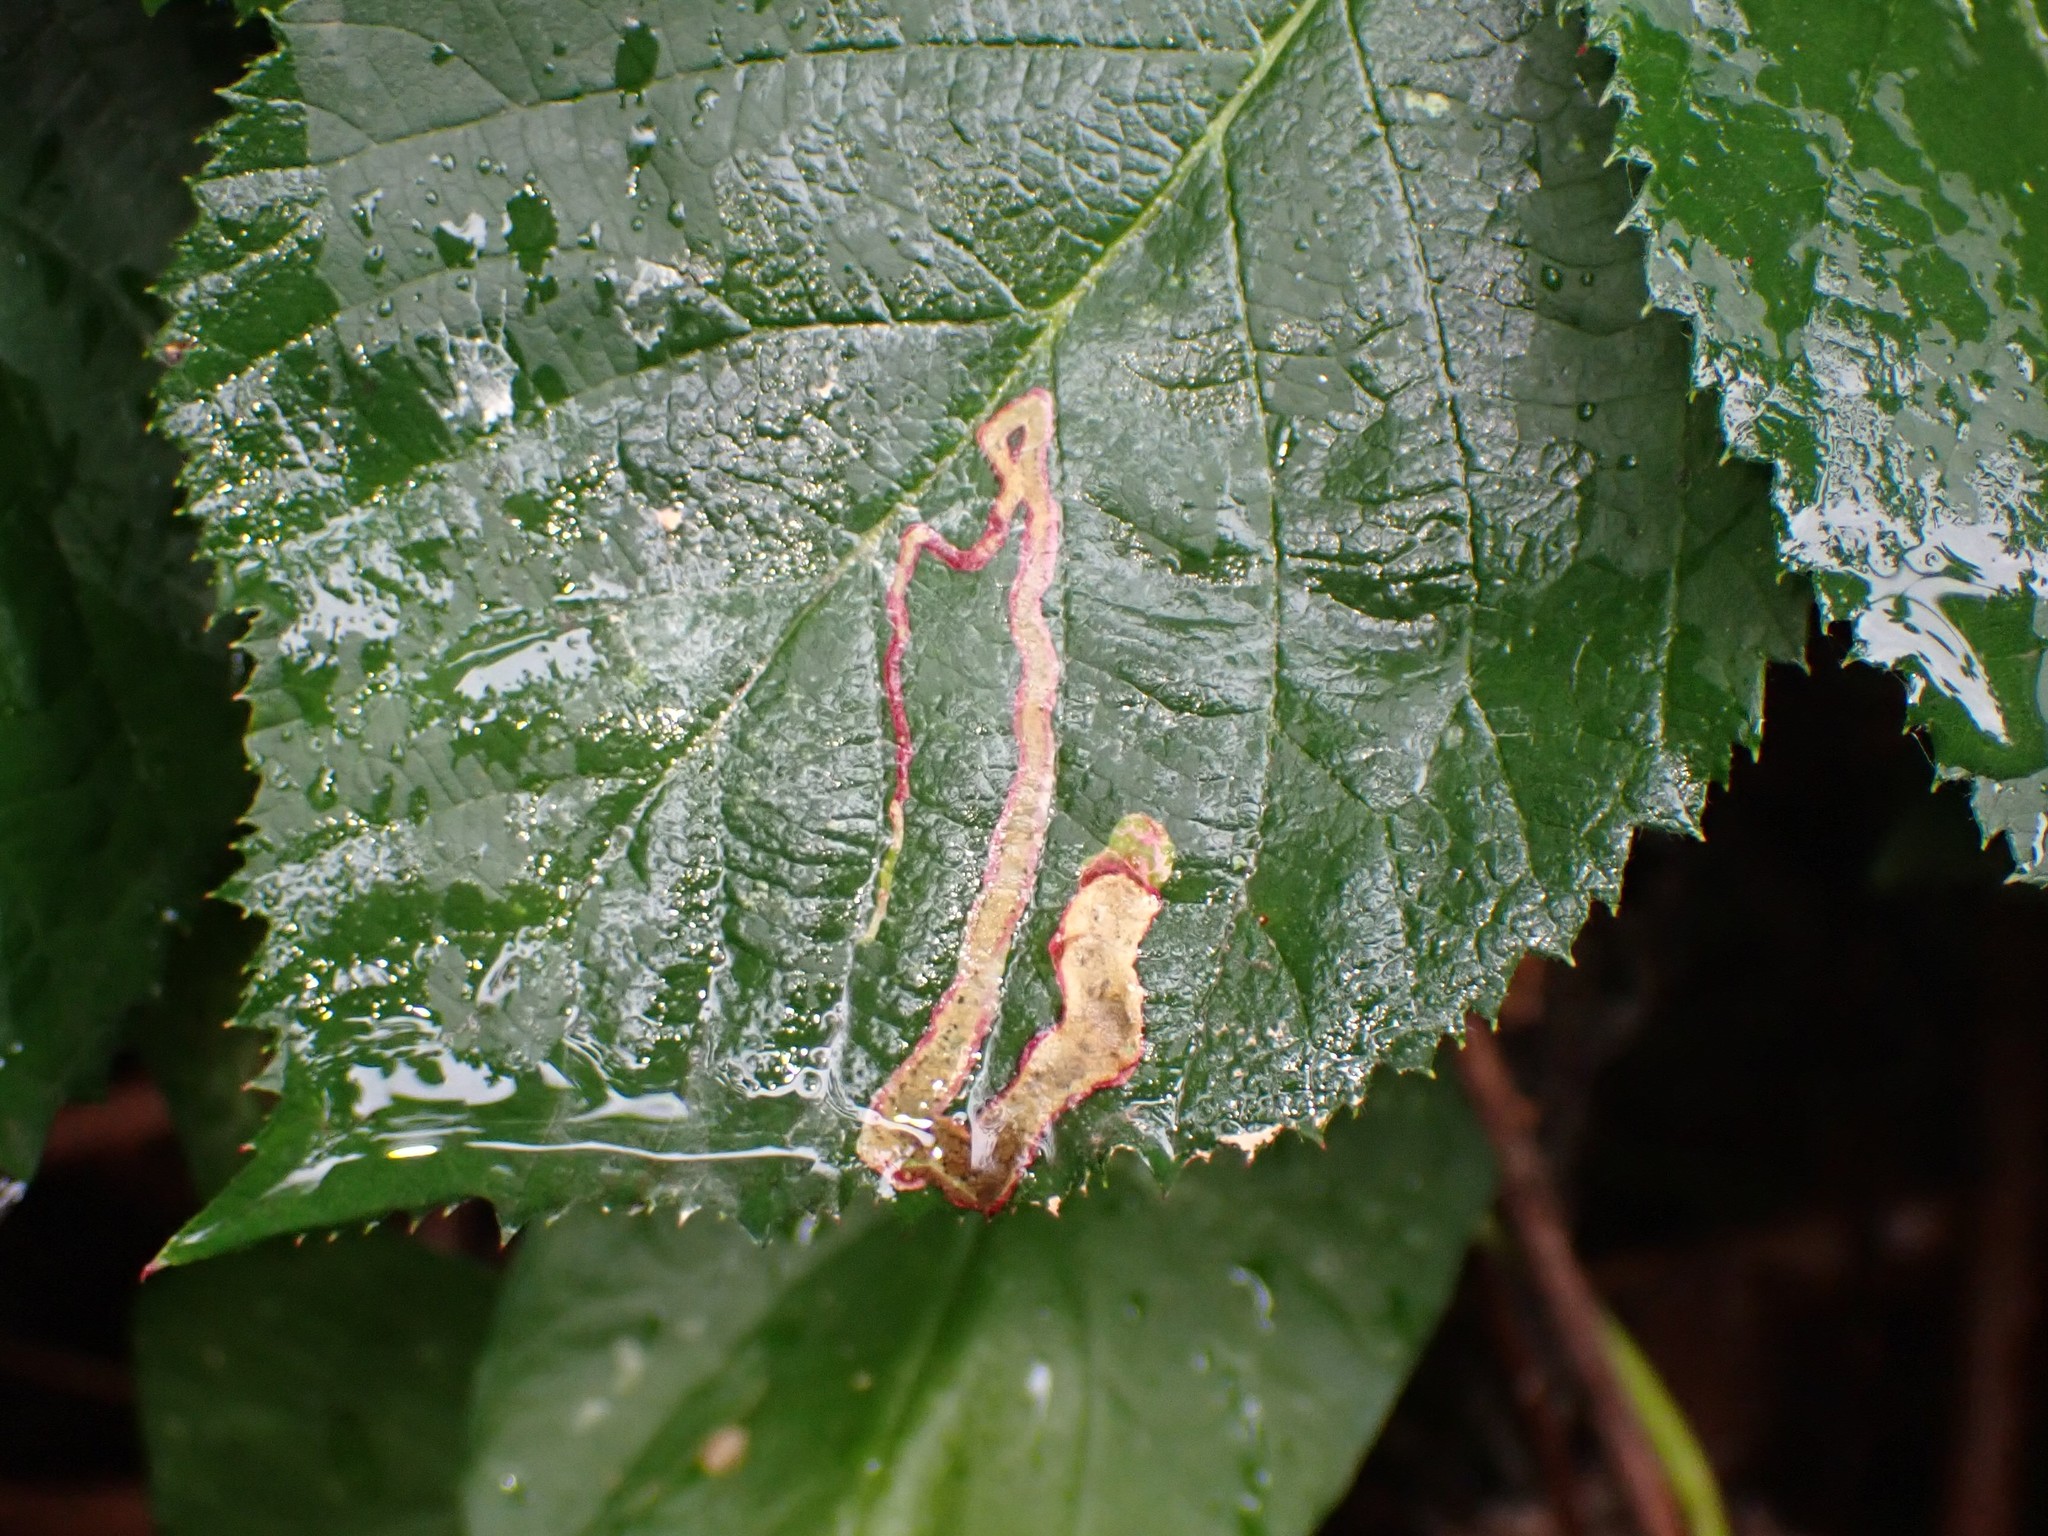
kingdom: Animalia
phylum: Arthropoda
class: Insecta
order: Diptera
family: Agromyzidae
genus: Agromyza
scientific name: Agromyza vockerothi
